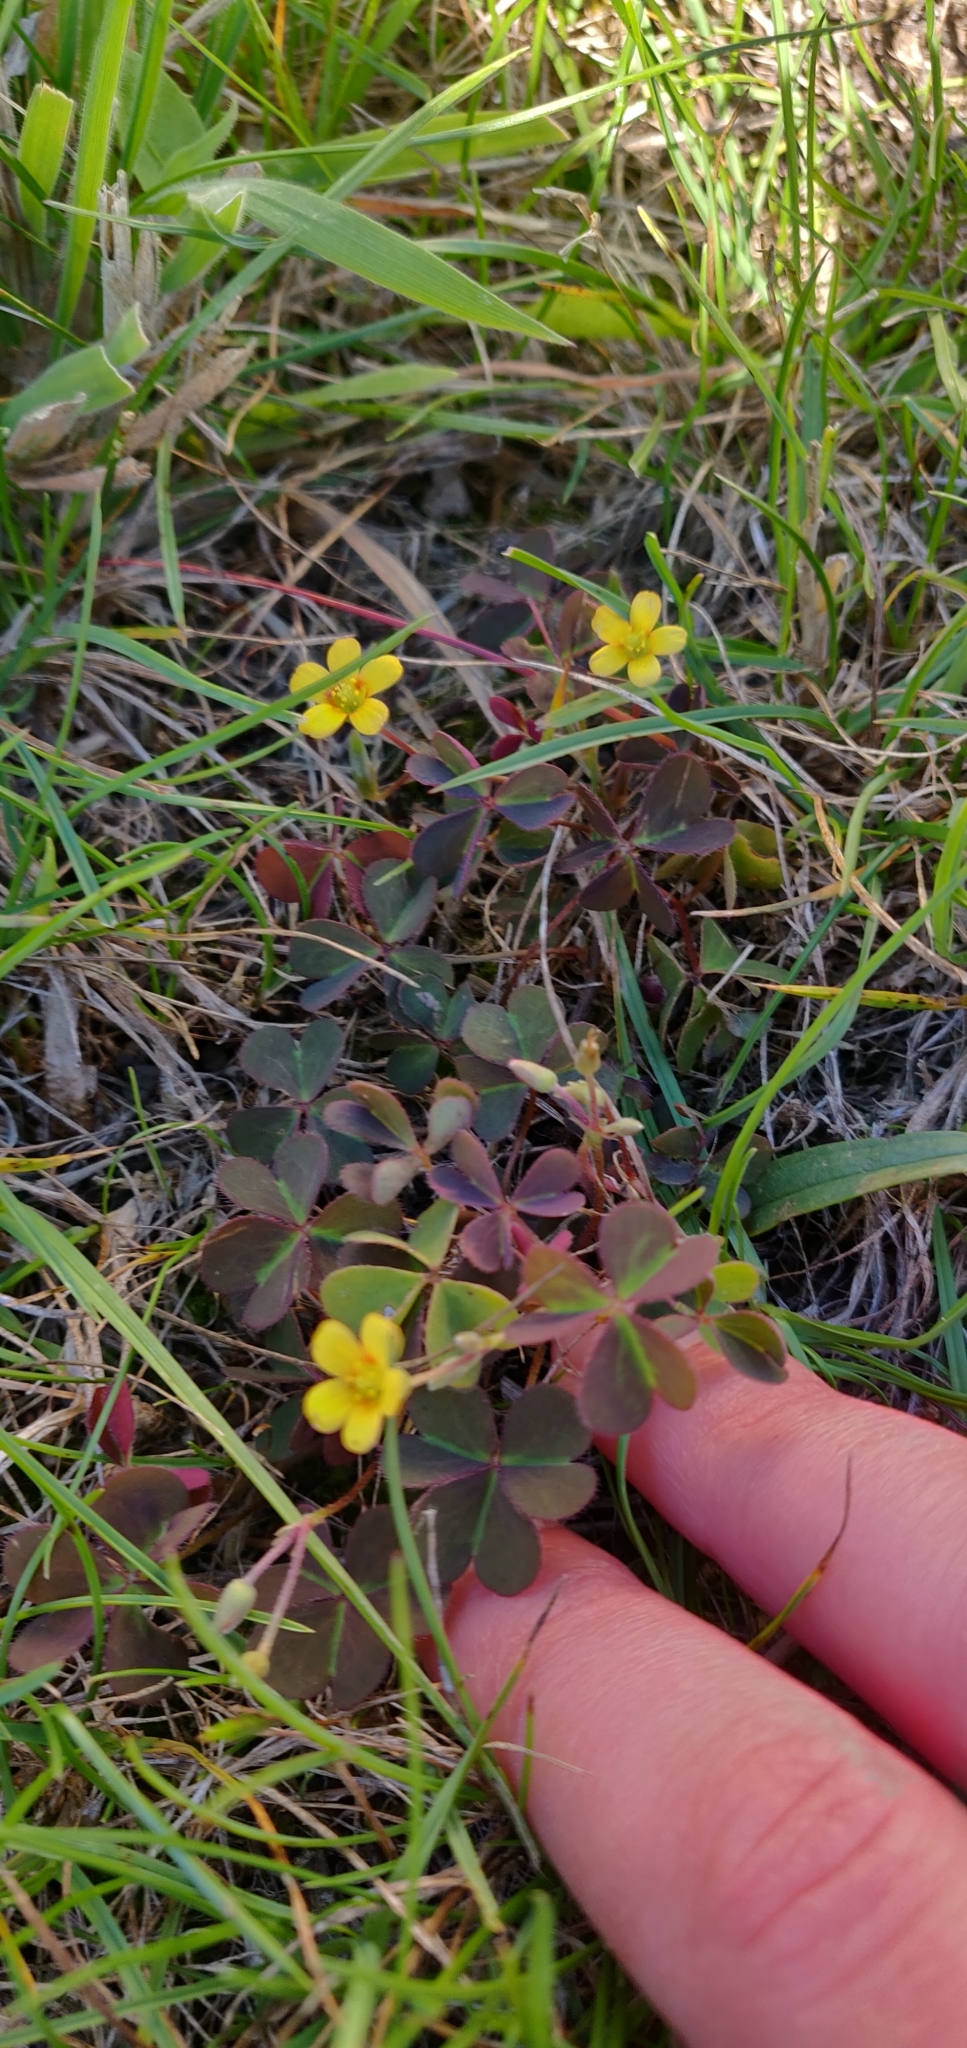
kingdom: Plantae
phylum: Tracheophyta
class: Magnoliopsida
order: Oxalidales
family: Oxalidaceae
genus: Oxalis
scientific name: Oxalis corniculata
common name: Procumbent yellow-sorrel
